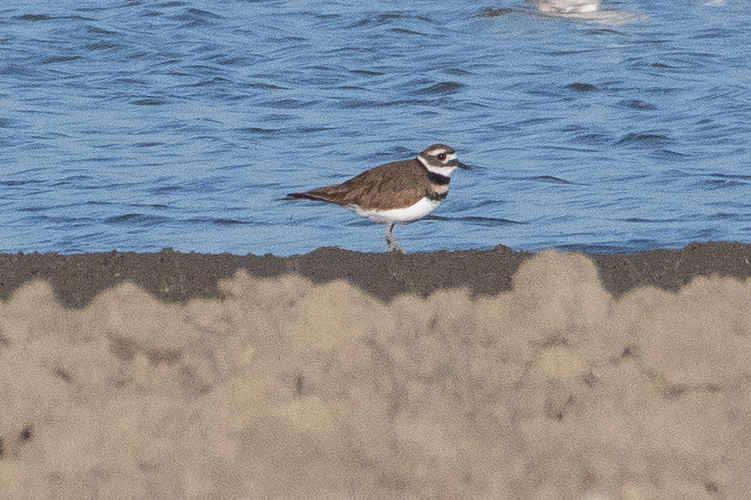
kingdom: Animalia
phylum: Chordata
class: Aves
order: Charadriiformes
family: Charadriidae
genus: Charadrius
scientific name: Charadrius vociferus
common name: Killdeer
